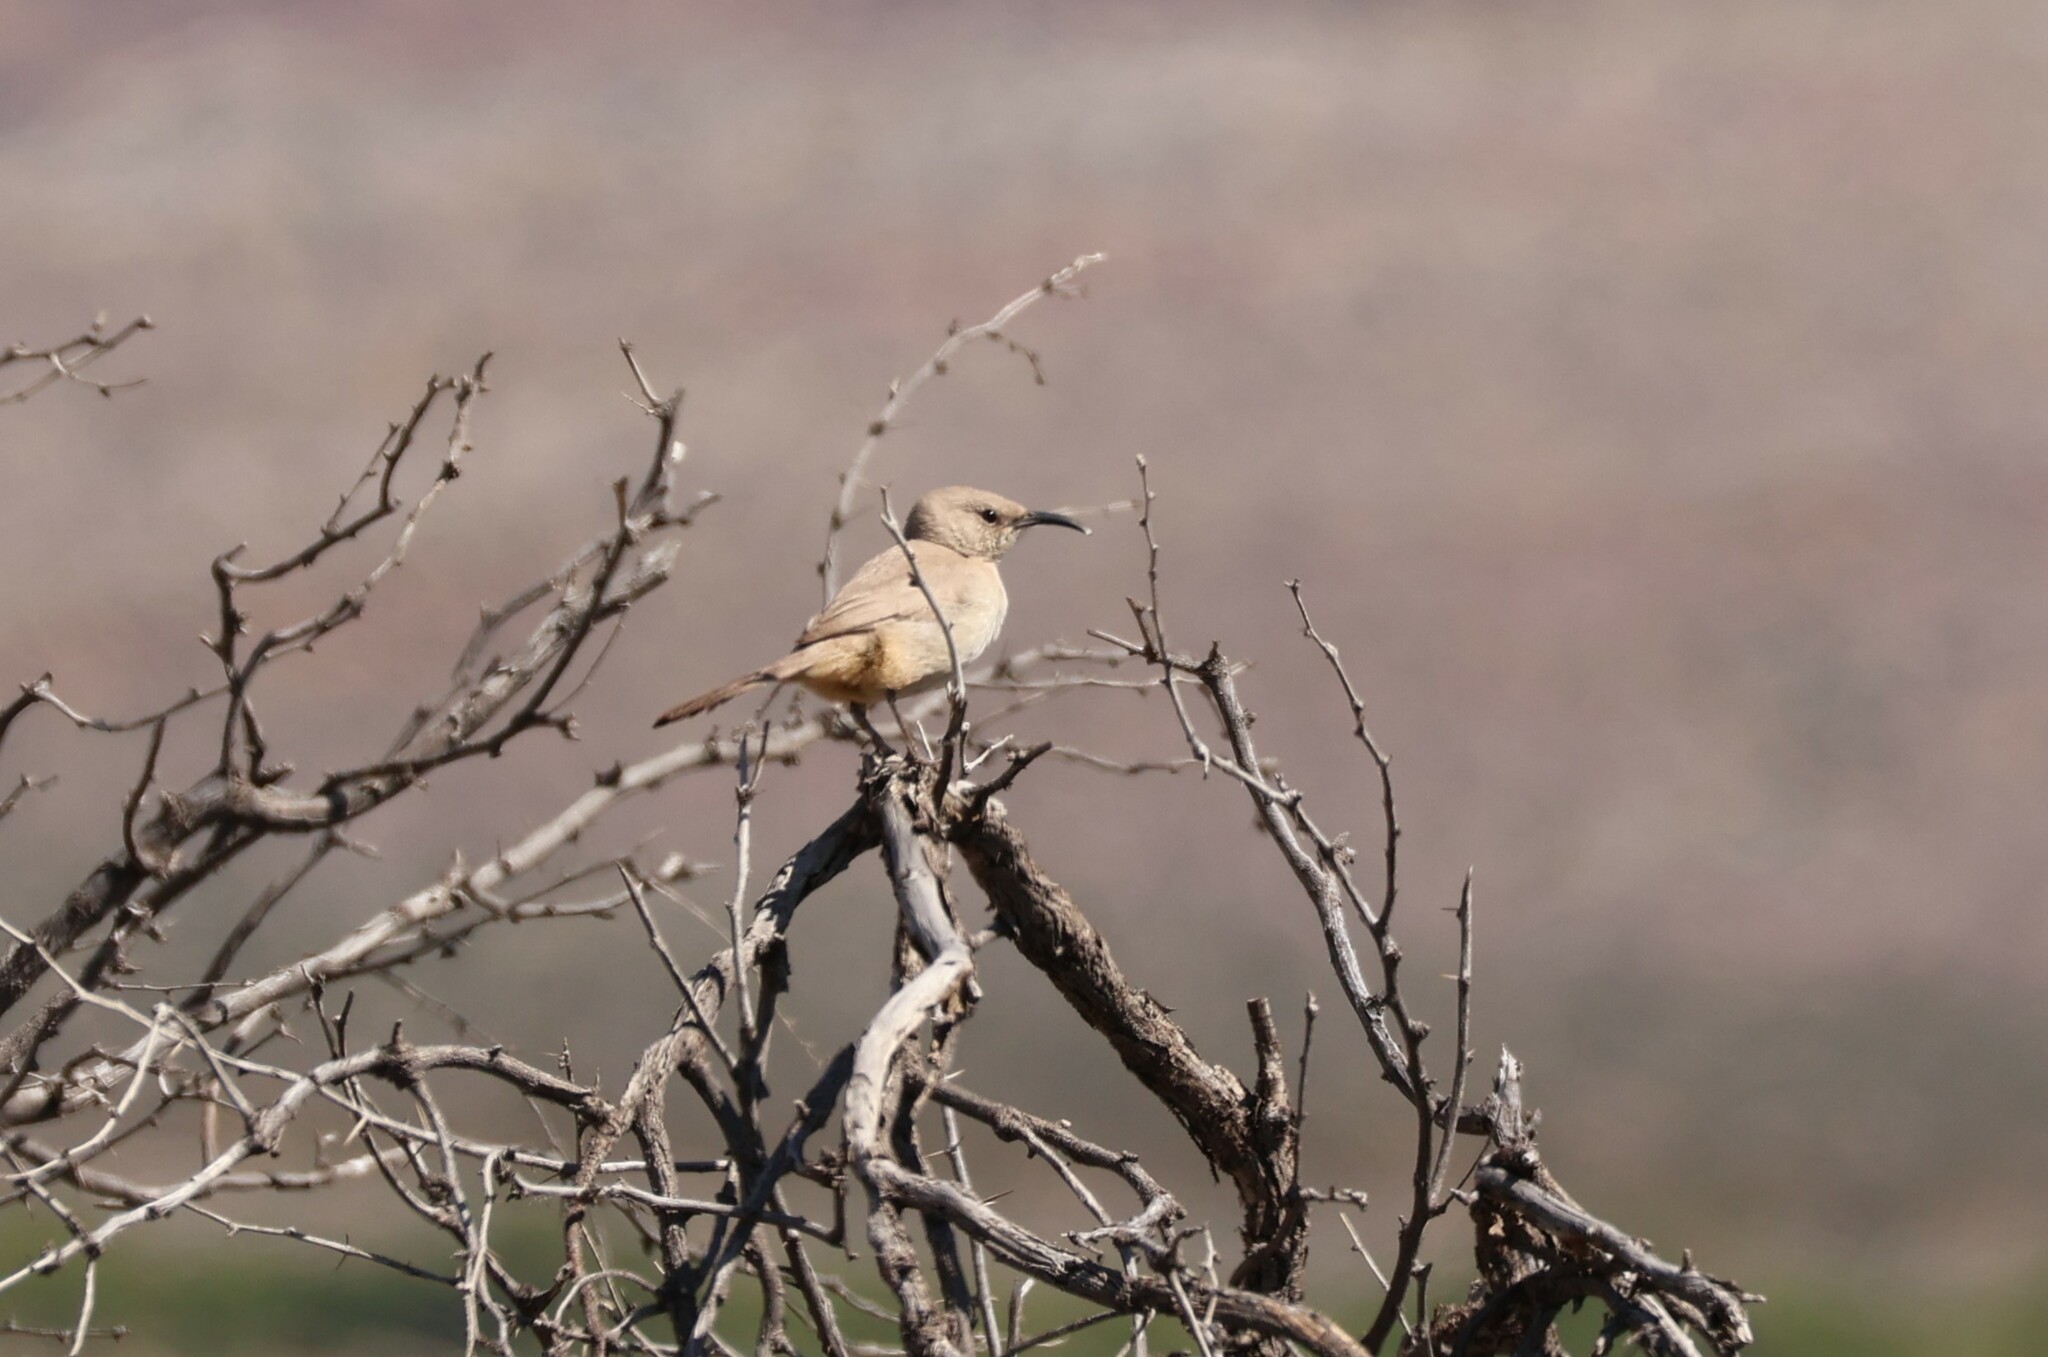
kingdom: Animalia
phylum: Chordata
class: Aves
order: Passeriformes
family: Mimidae
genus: Toxostoma
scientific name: Toxostoma lecontei
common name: Le conte's thrasher
